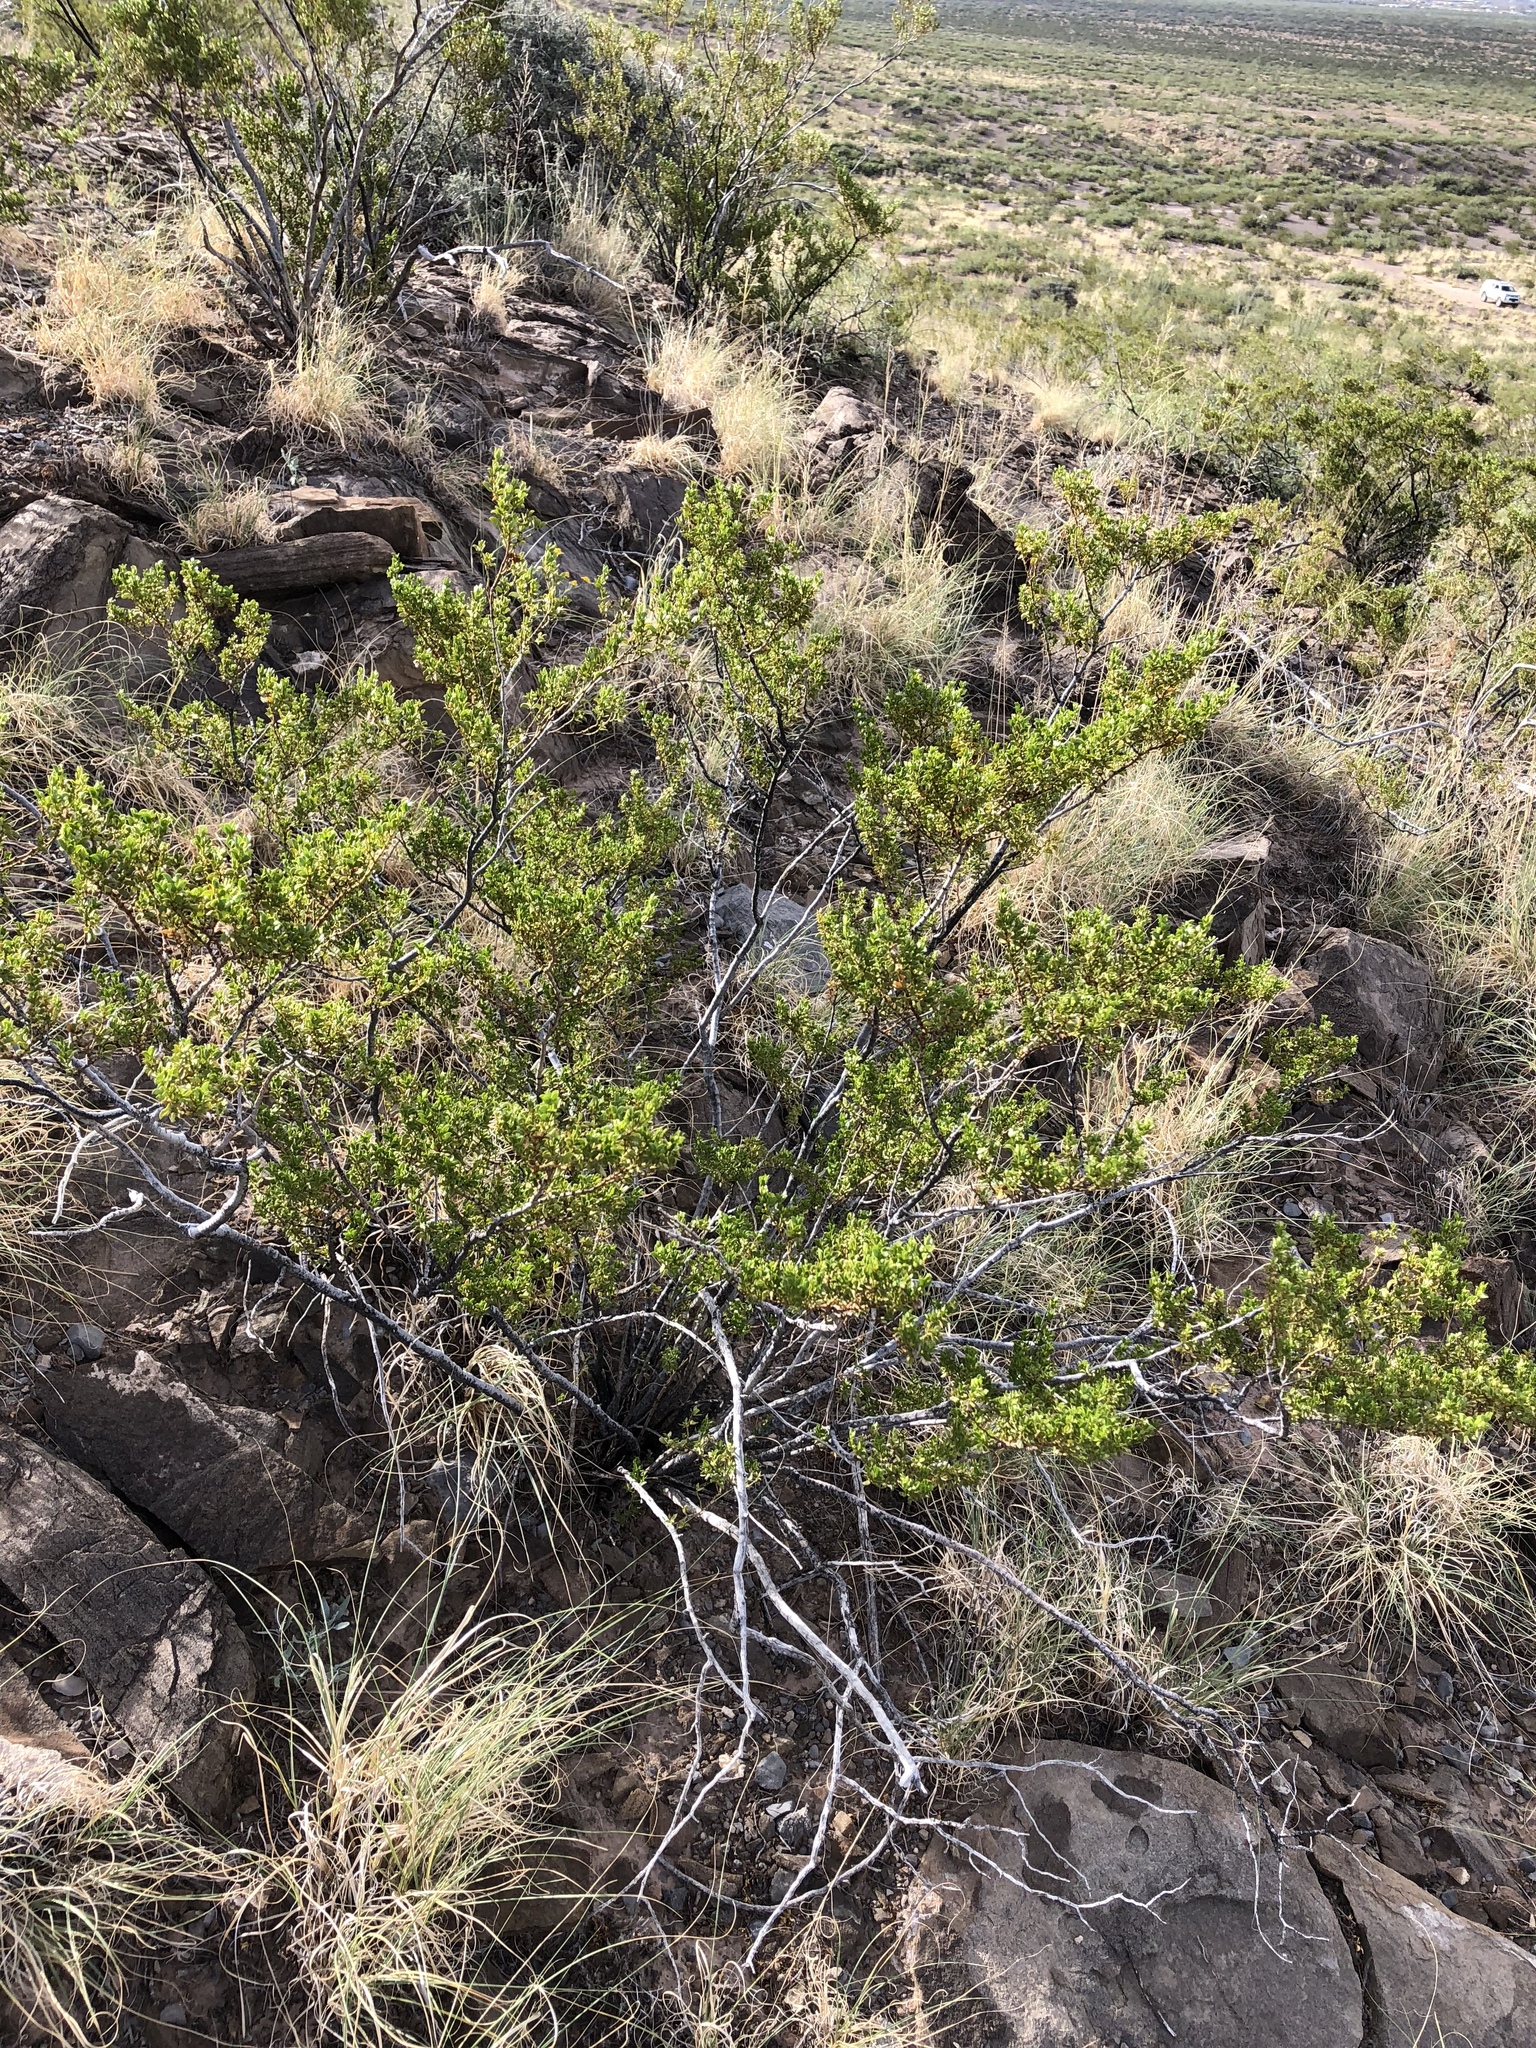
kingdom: Plantae
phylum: Tracheophyta
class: Magnoliopsida
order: Zygophyllales
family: Zygophyllaceae
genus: Larrea
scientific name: Larrea tridentata
